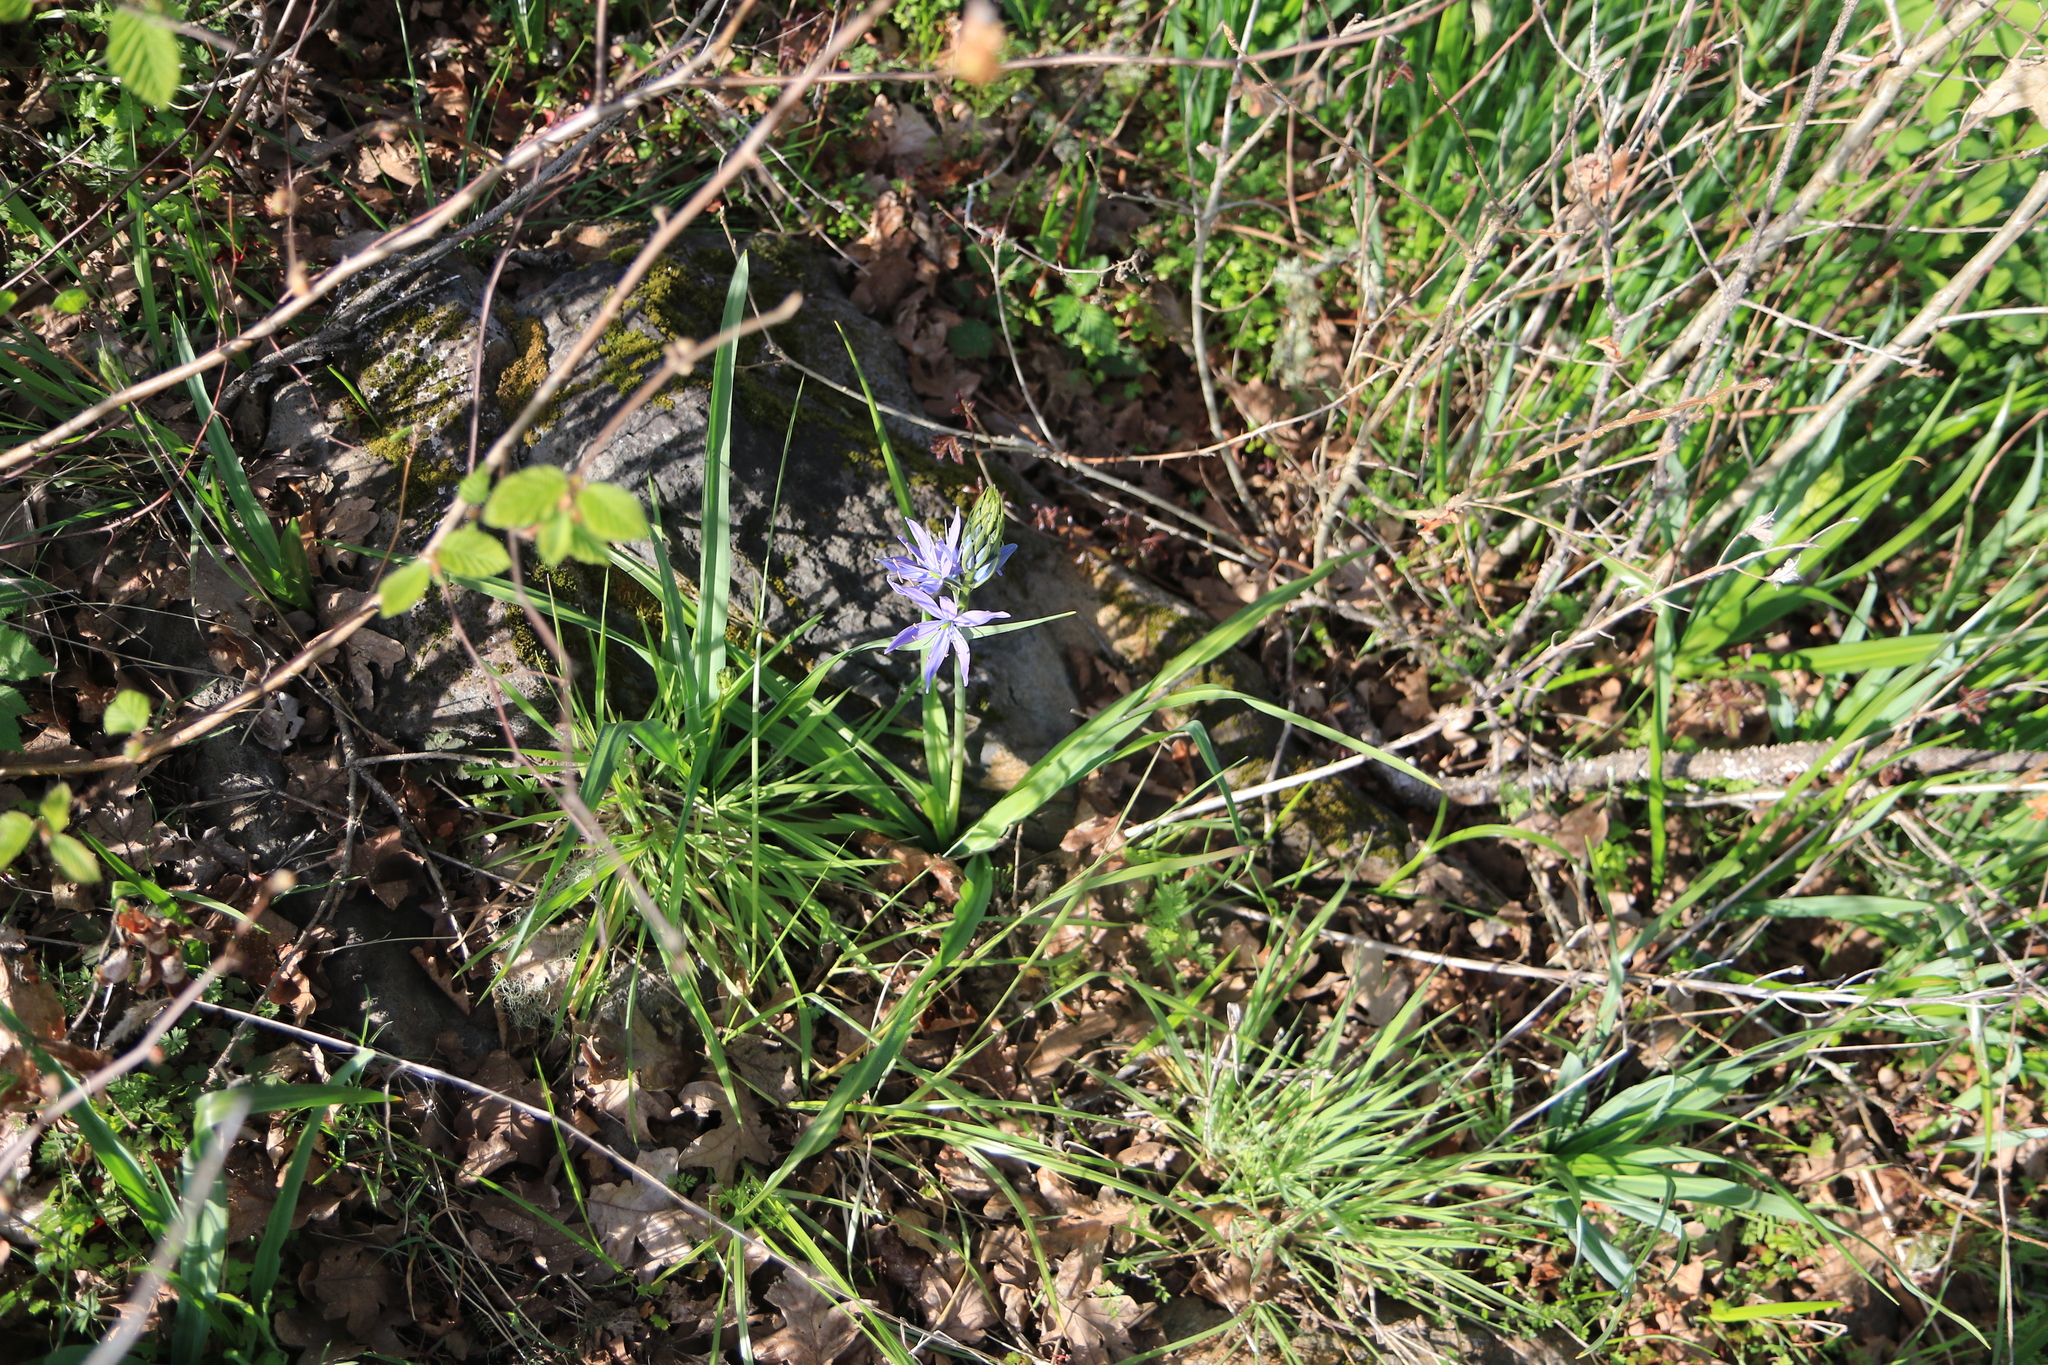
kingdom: Plantae
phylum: Tracheophyta
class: Liliopsida
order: Asparagales
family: Asparagaceae
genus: Camassia
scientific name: Camassia leichtlinii
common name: Leichtlin's camas
